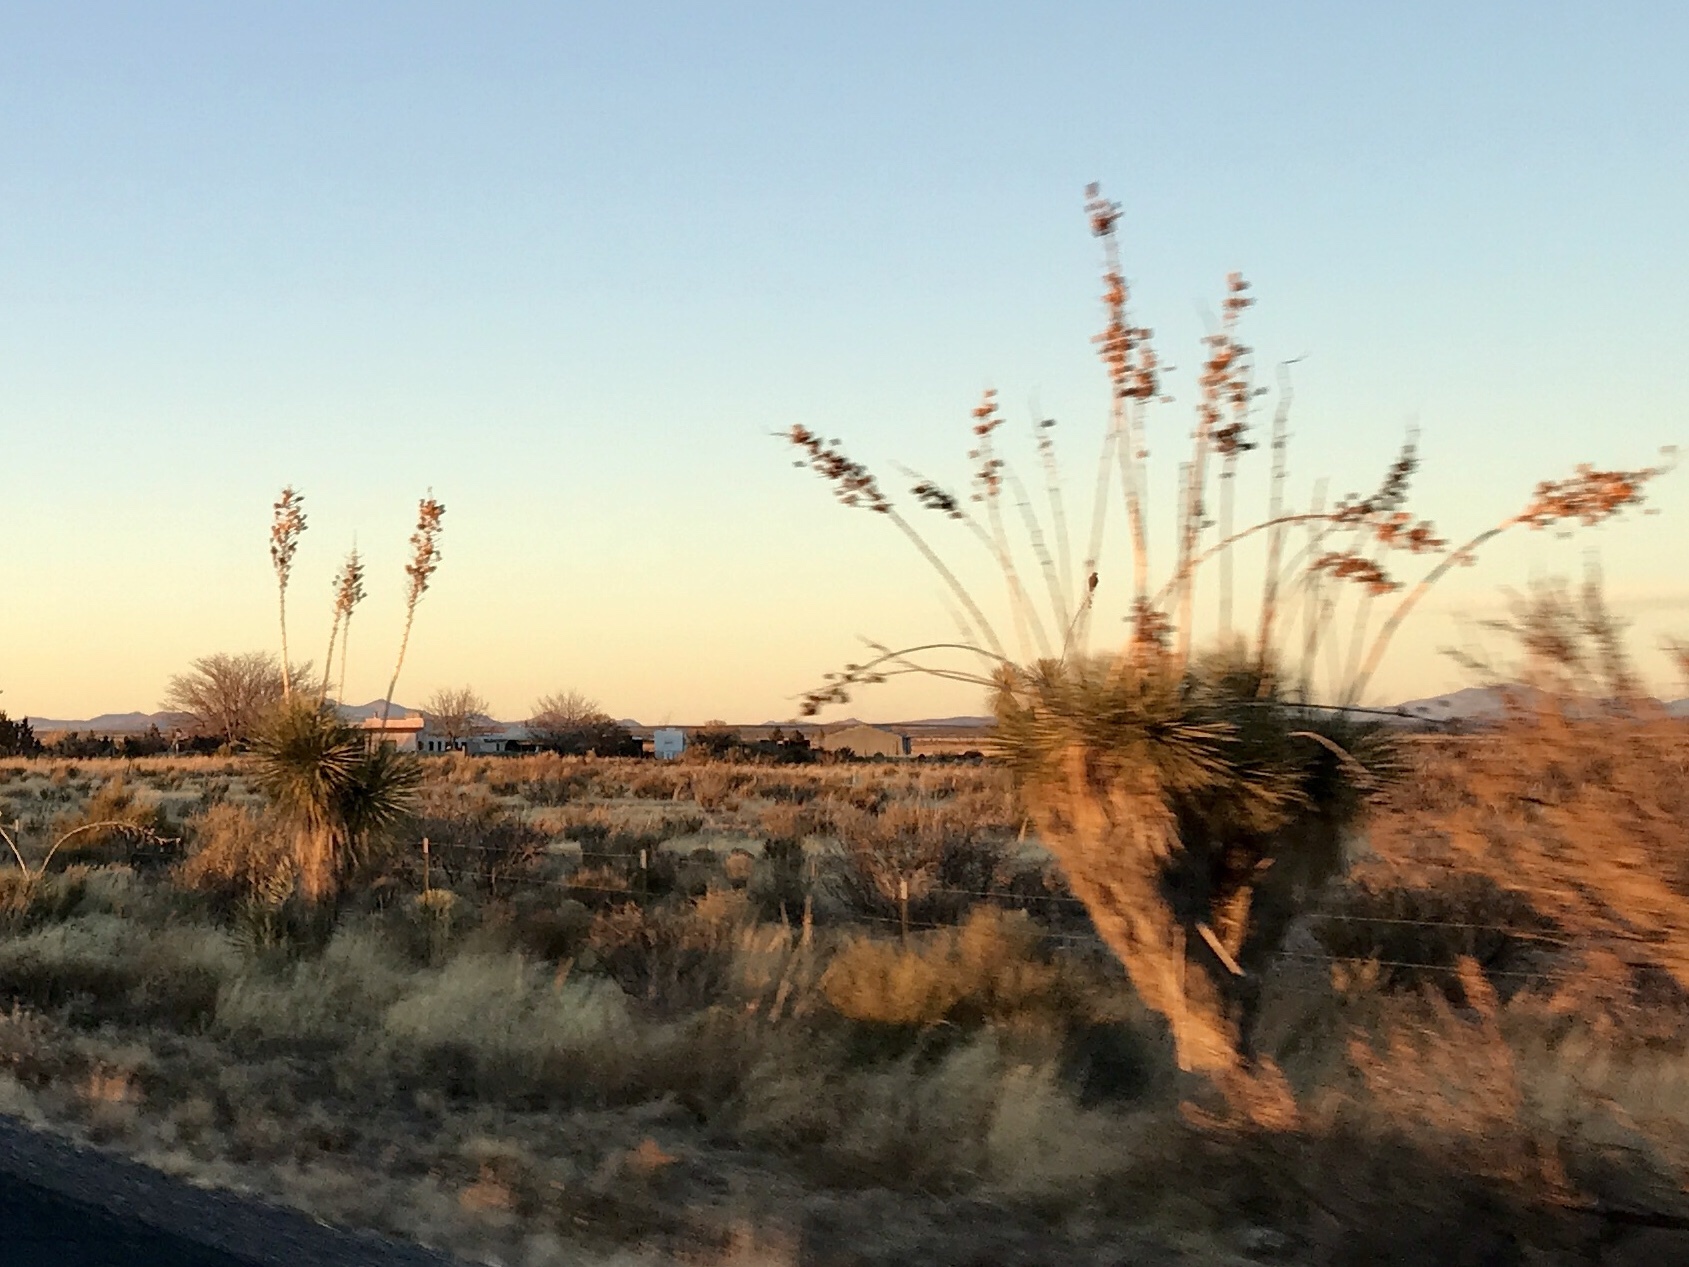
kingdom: Plantae
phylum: Tracheophyta
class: Liliopsida
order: Asparagales
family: Asparagaceae
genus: Yucca
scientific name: Yucca elata
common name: Palmella
